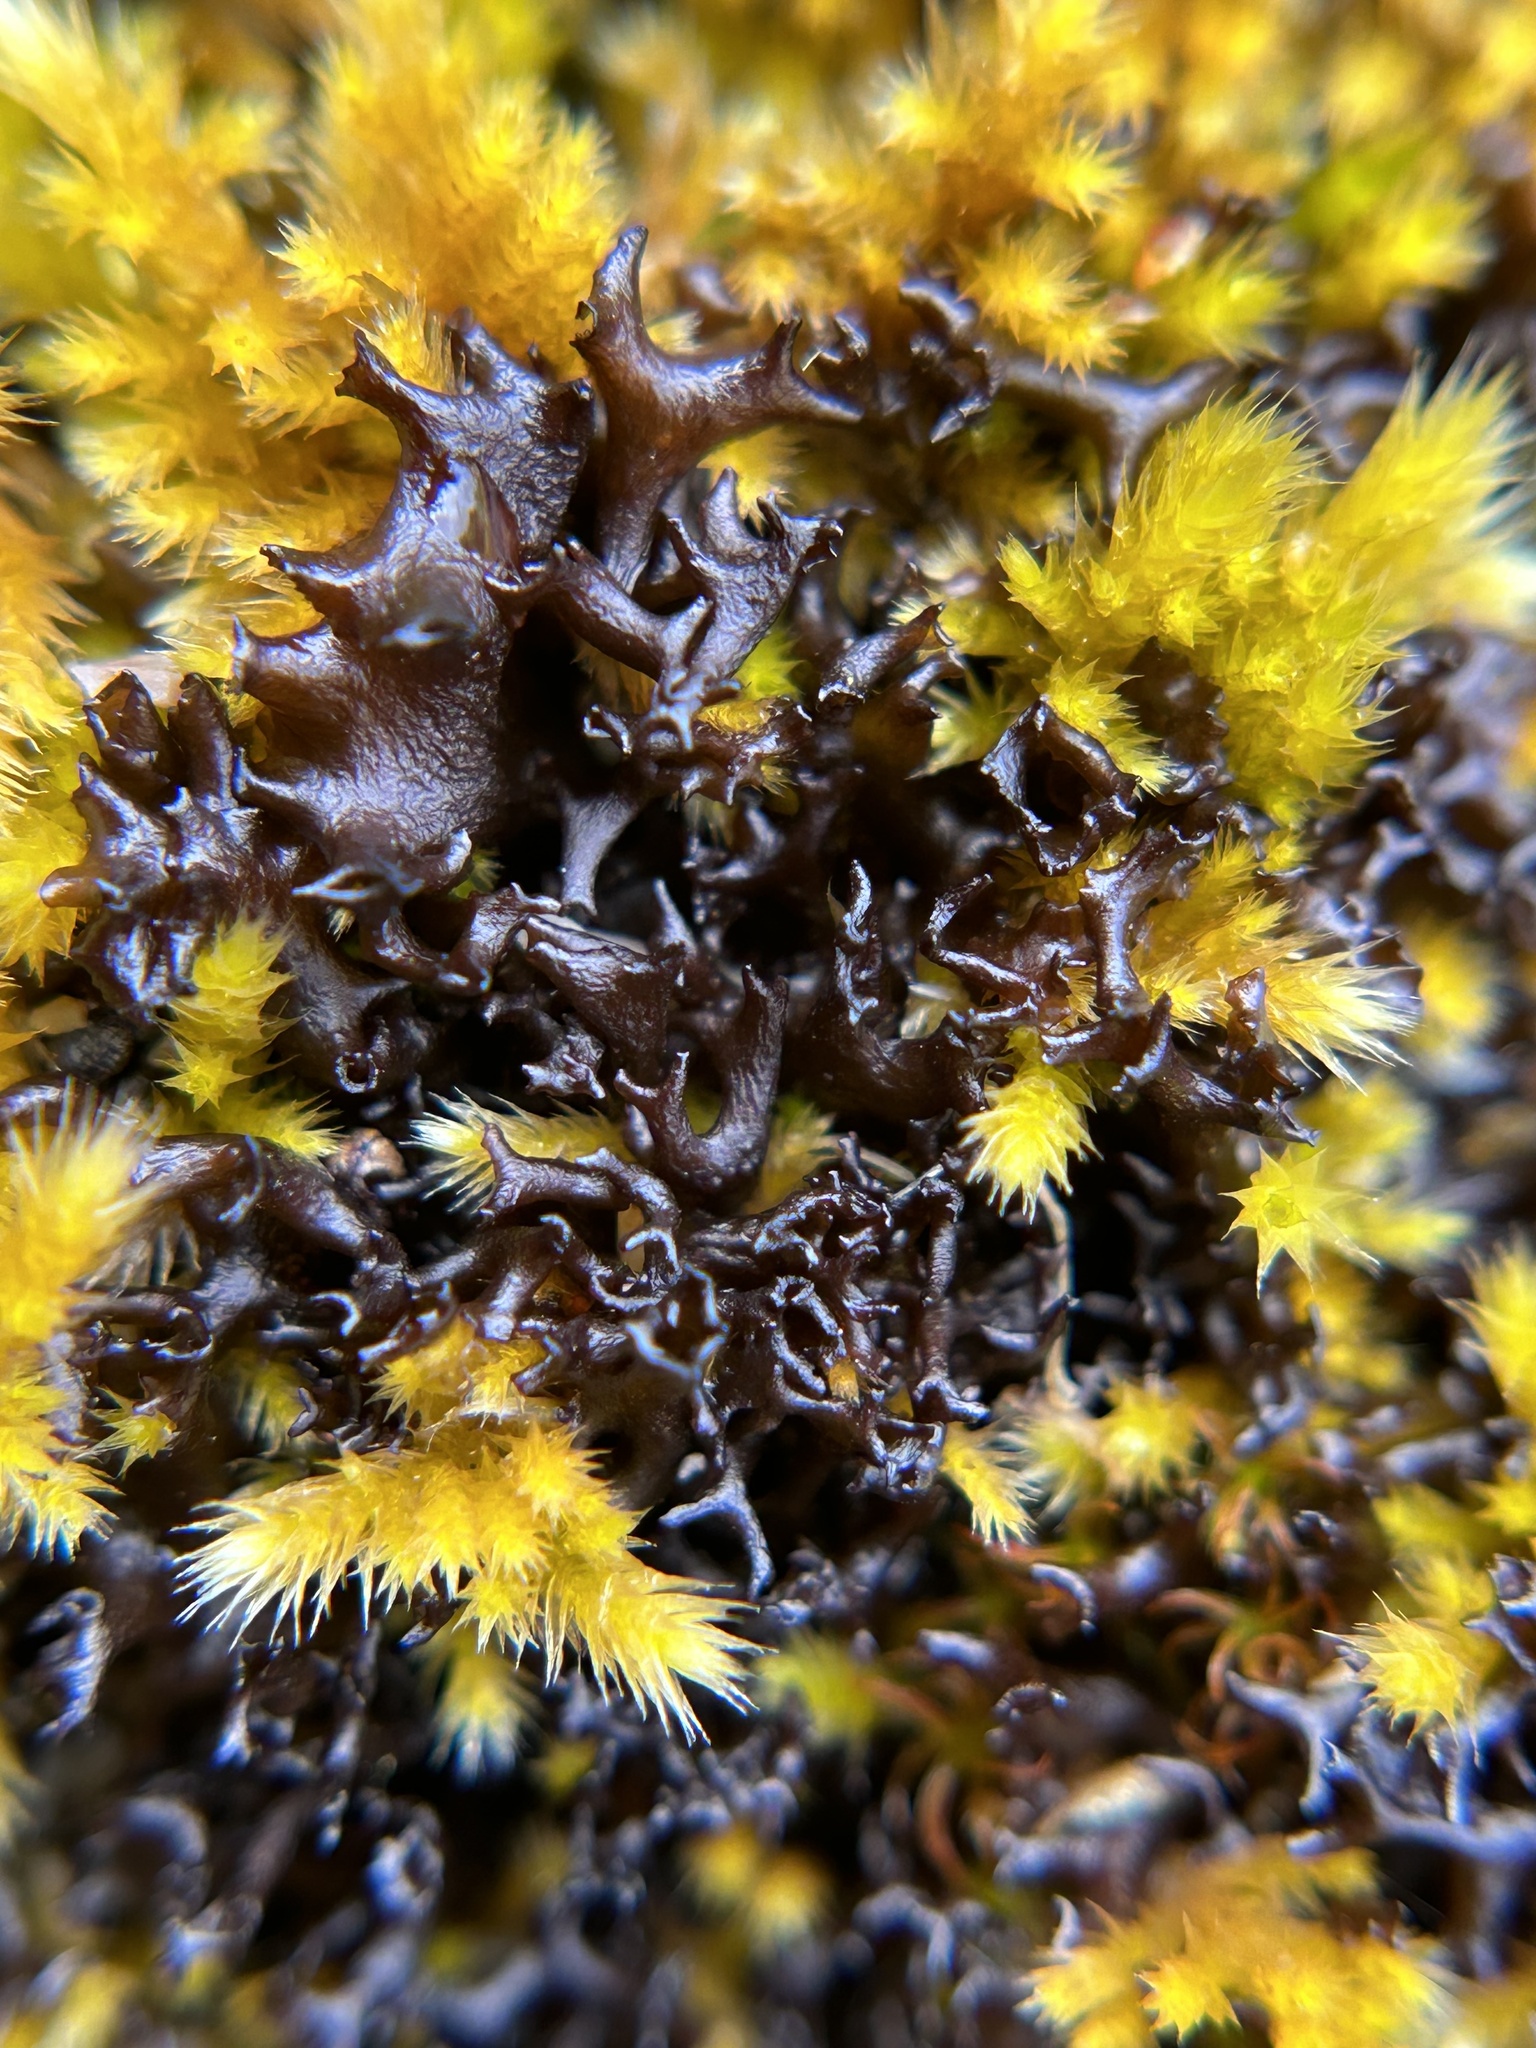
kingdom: Fungi
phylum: Ascomycota
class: Lecanoromycetes
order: Peltigerales
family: Collemataceae
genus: Scytinium
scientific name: Scytinium palmatum
